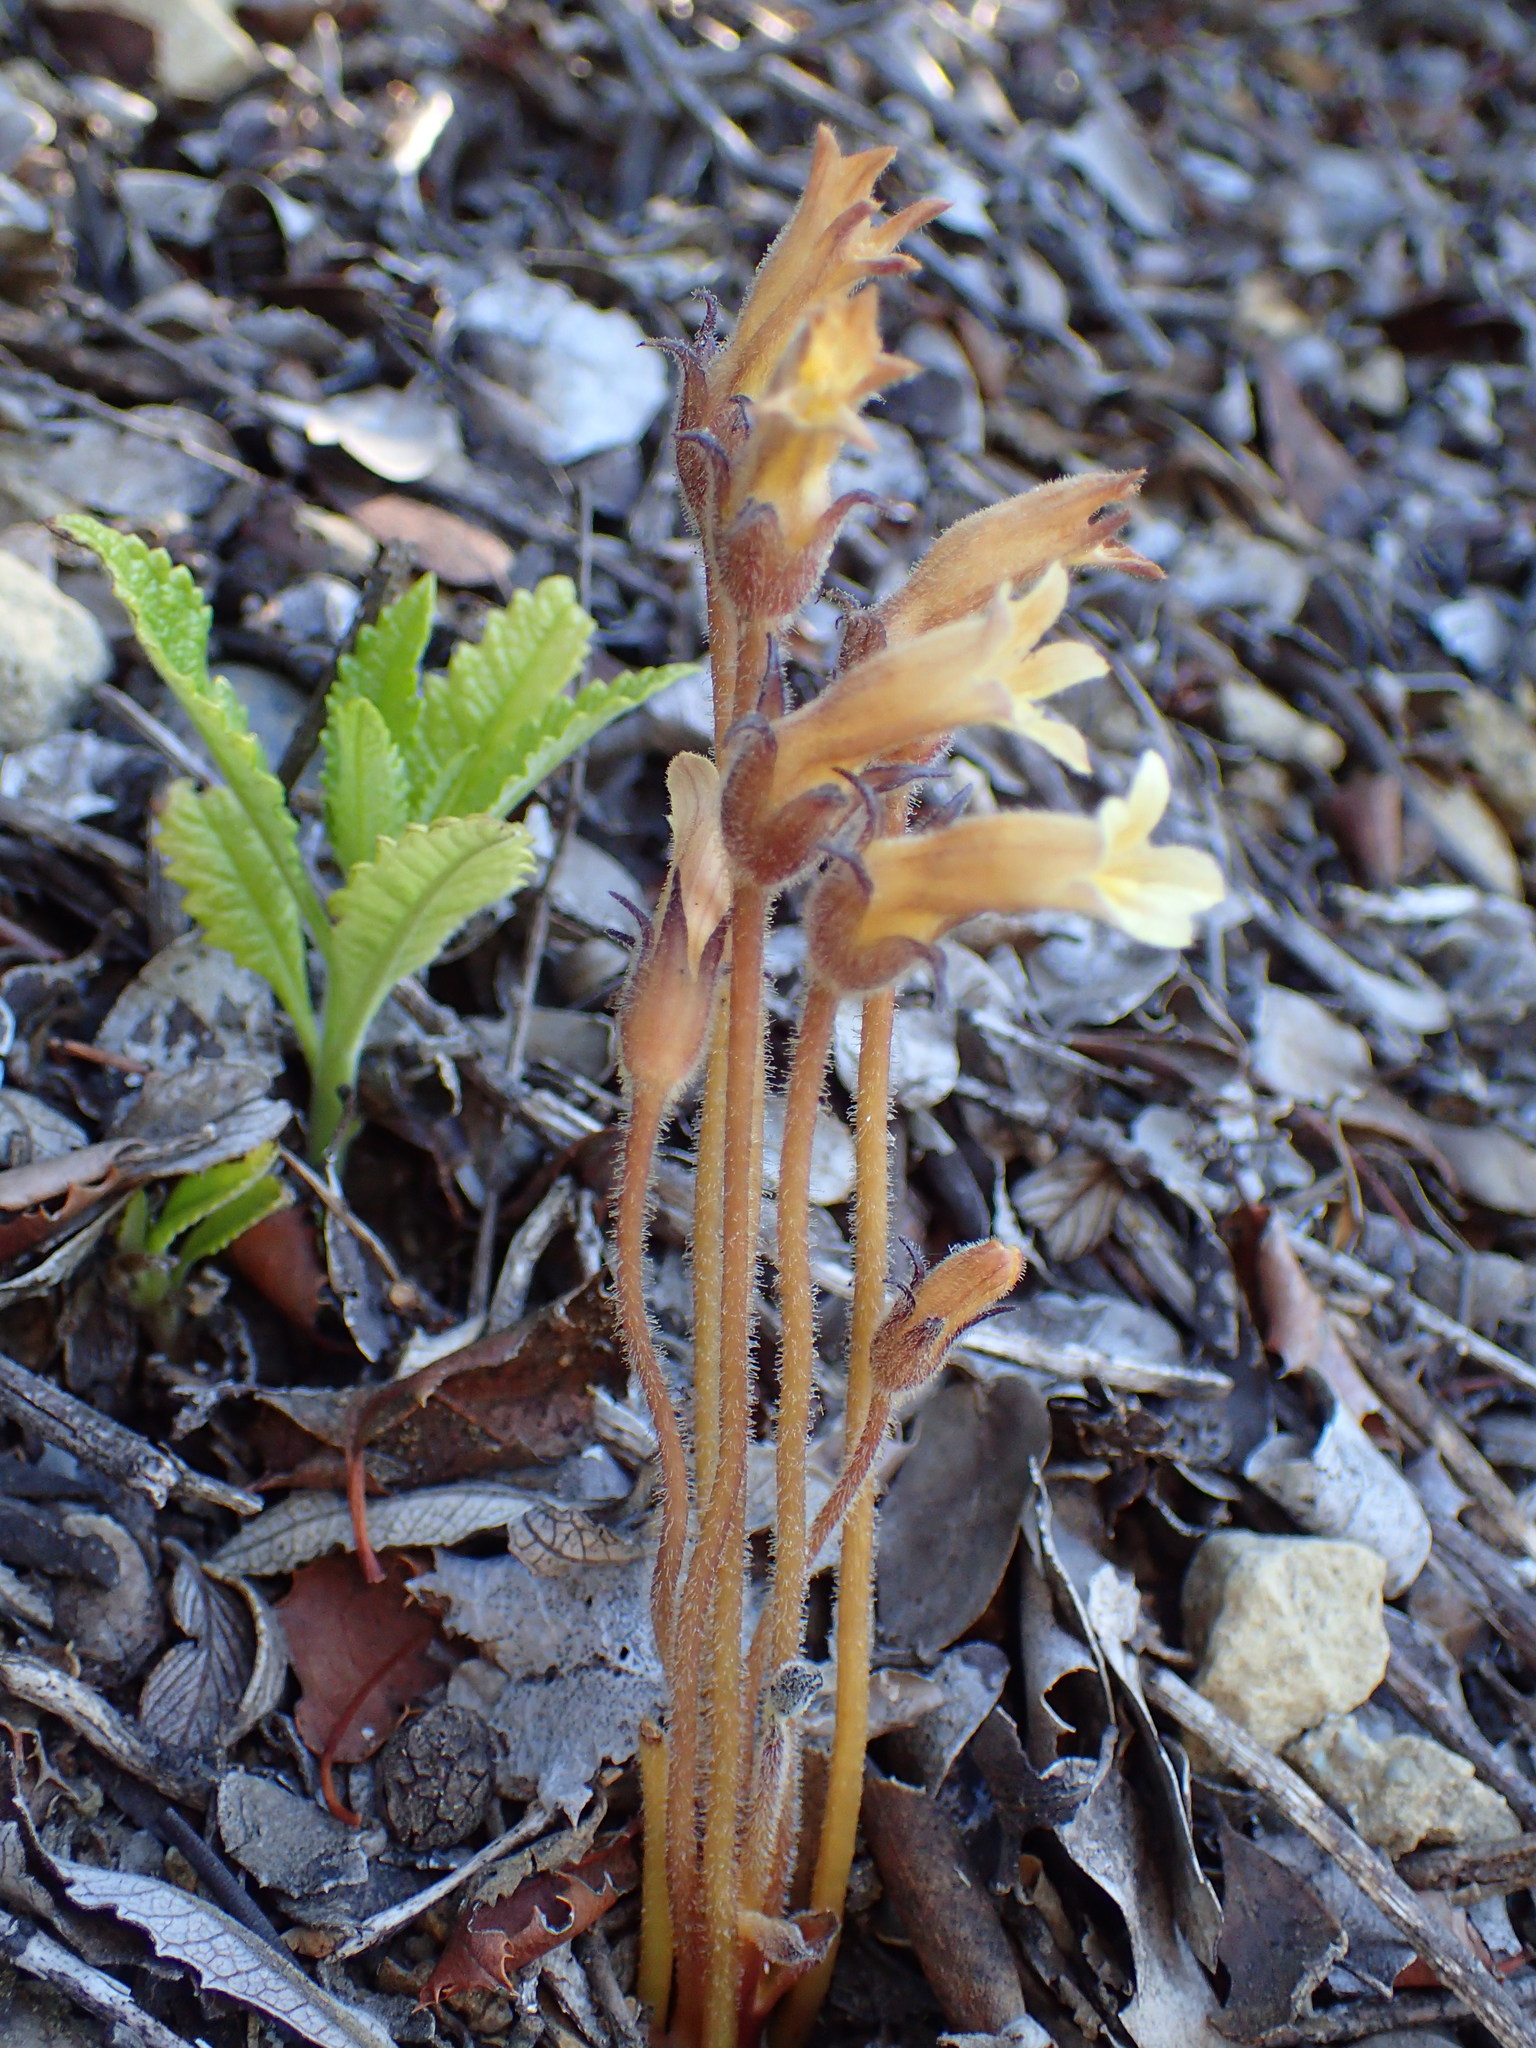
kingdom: Plantae
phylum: Tracheophyta
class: Magnoliopsida
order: Lamiales
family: Orobanchaceae
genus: Aphyllon
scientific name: Aphyllon franciscanum
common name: San francisco broomrape
